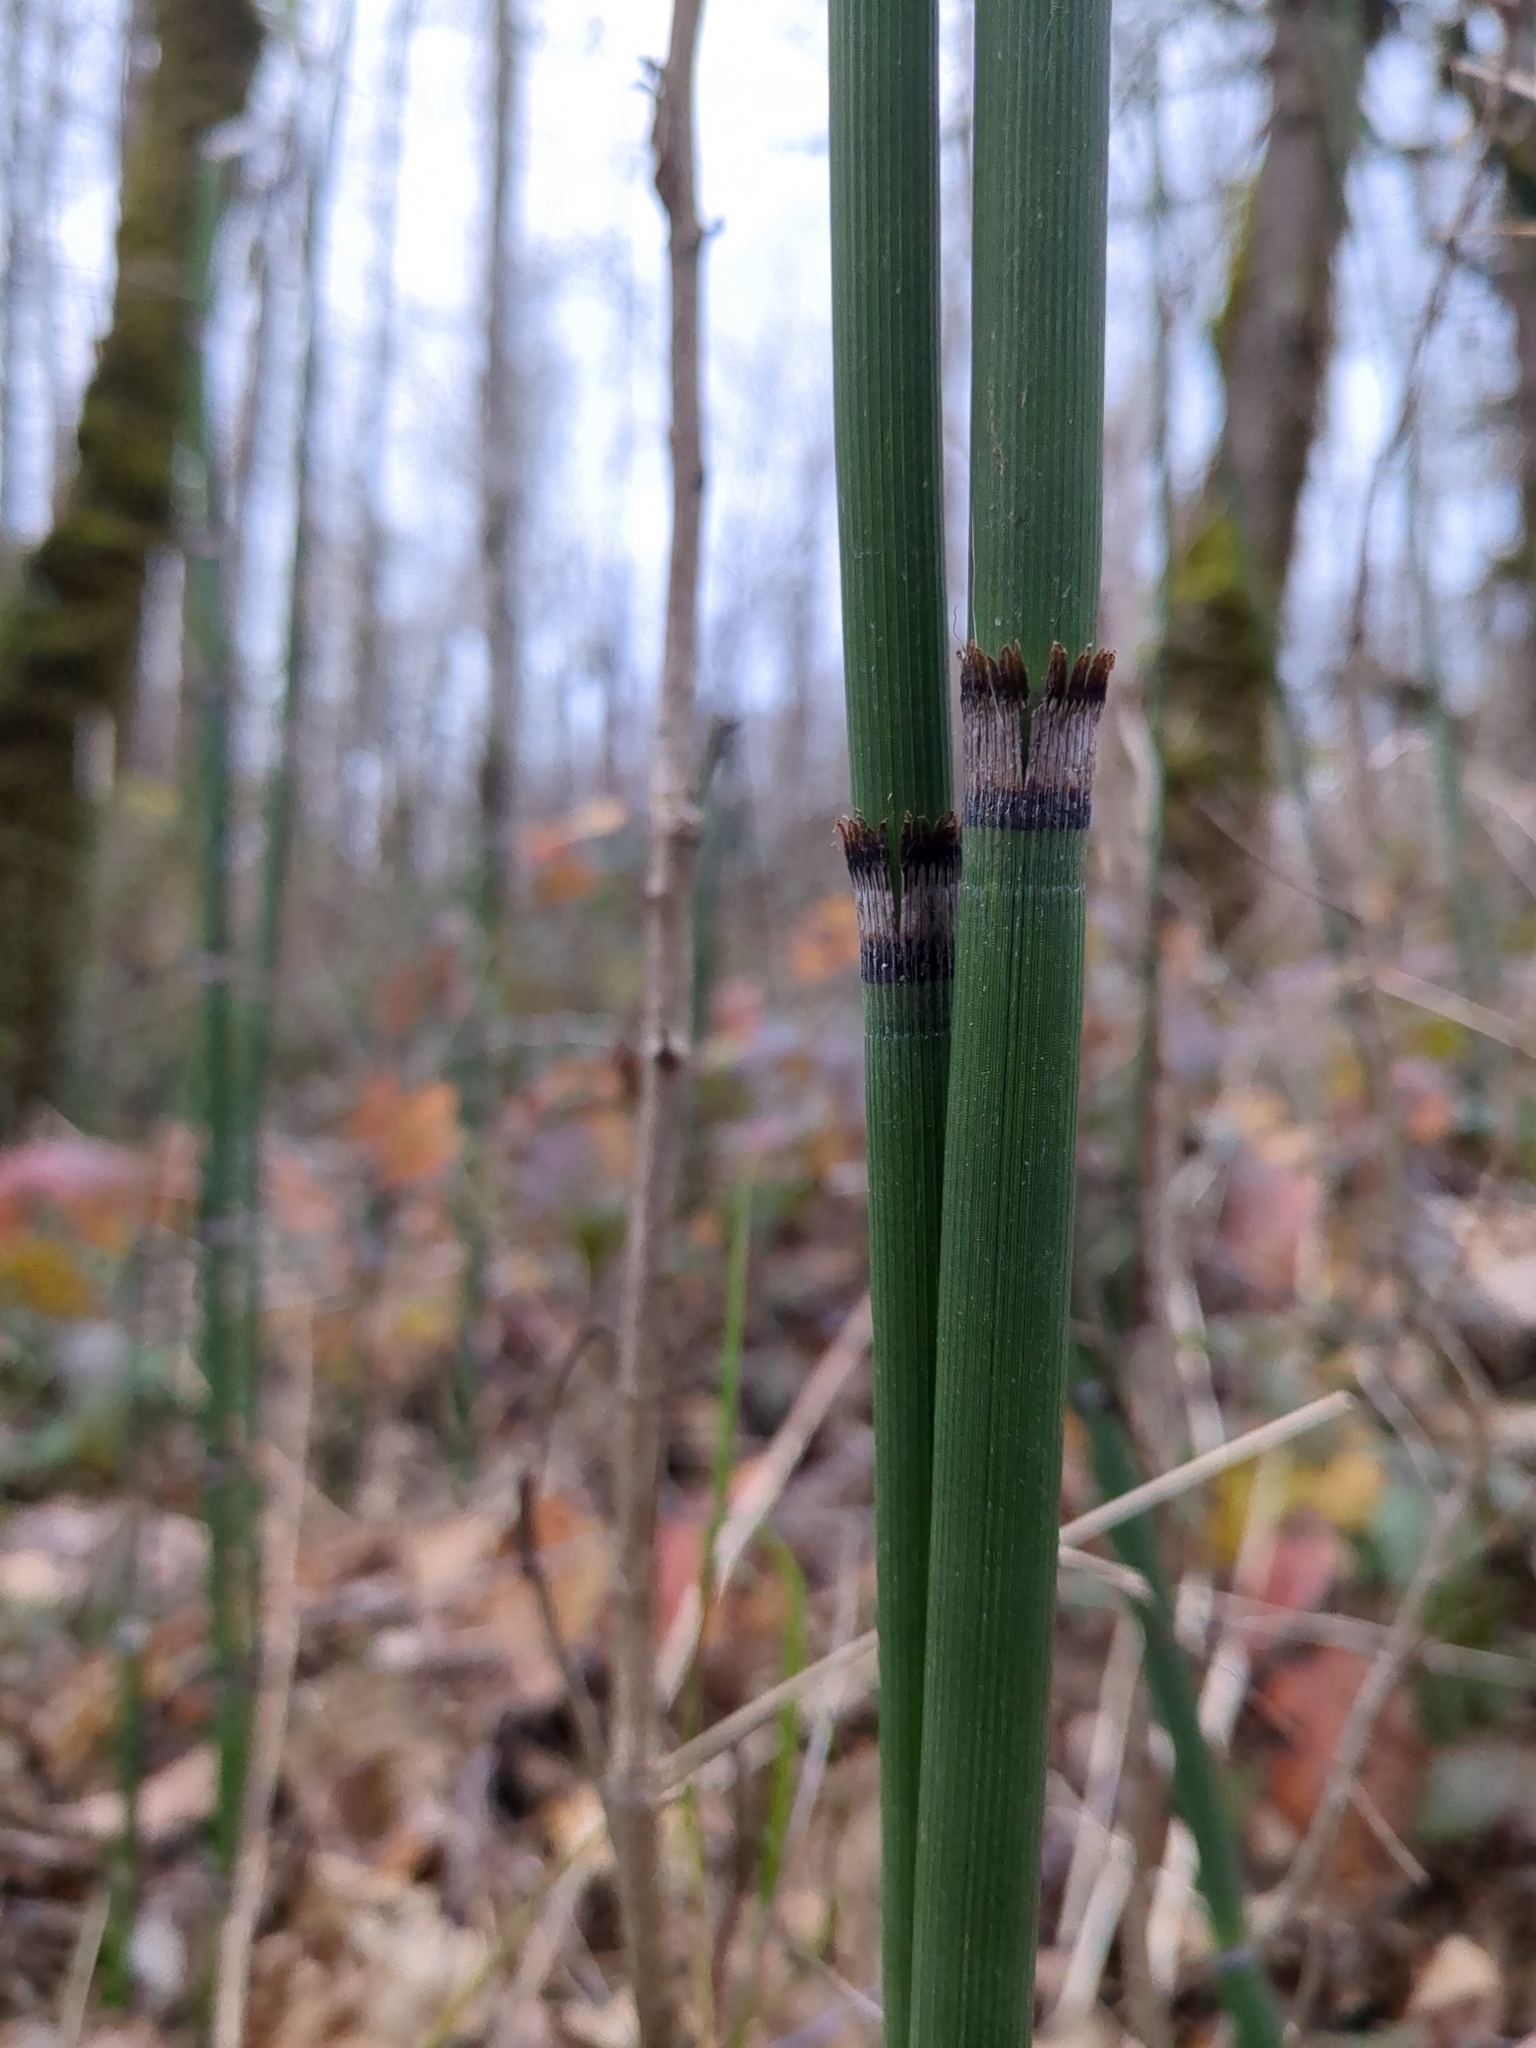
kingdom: Plantae
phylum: Tracheophyta
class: Polypodiopsida
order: Equisetales
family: Equisetaceae
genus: Equisetum
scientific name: Equisetum praealtum
